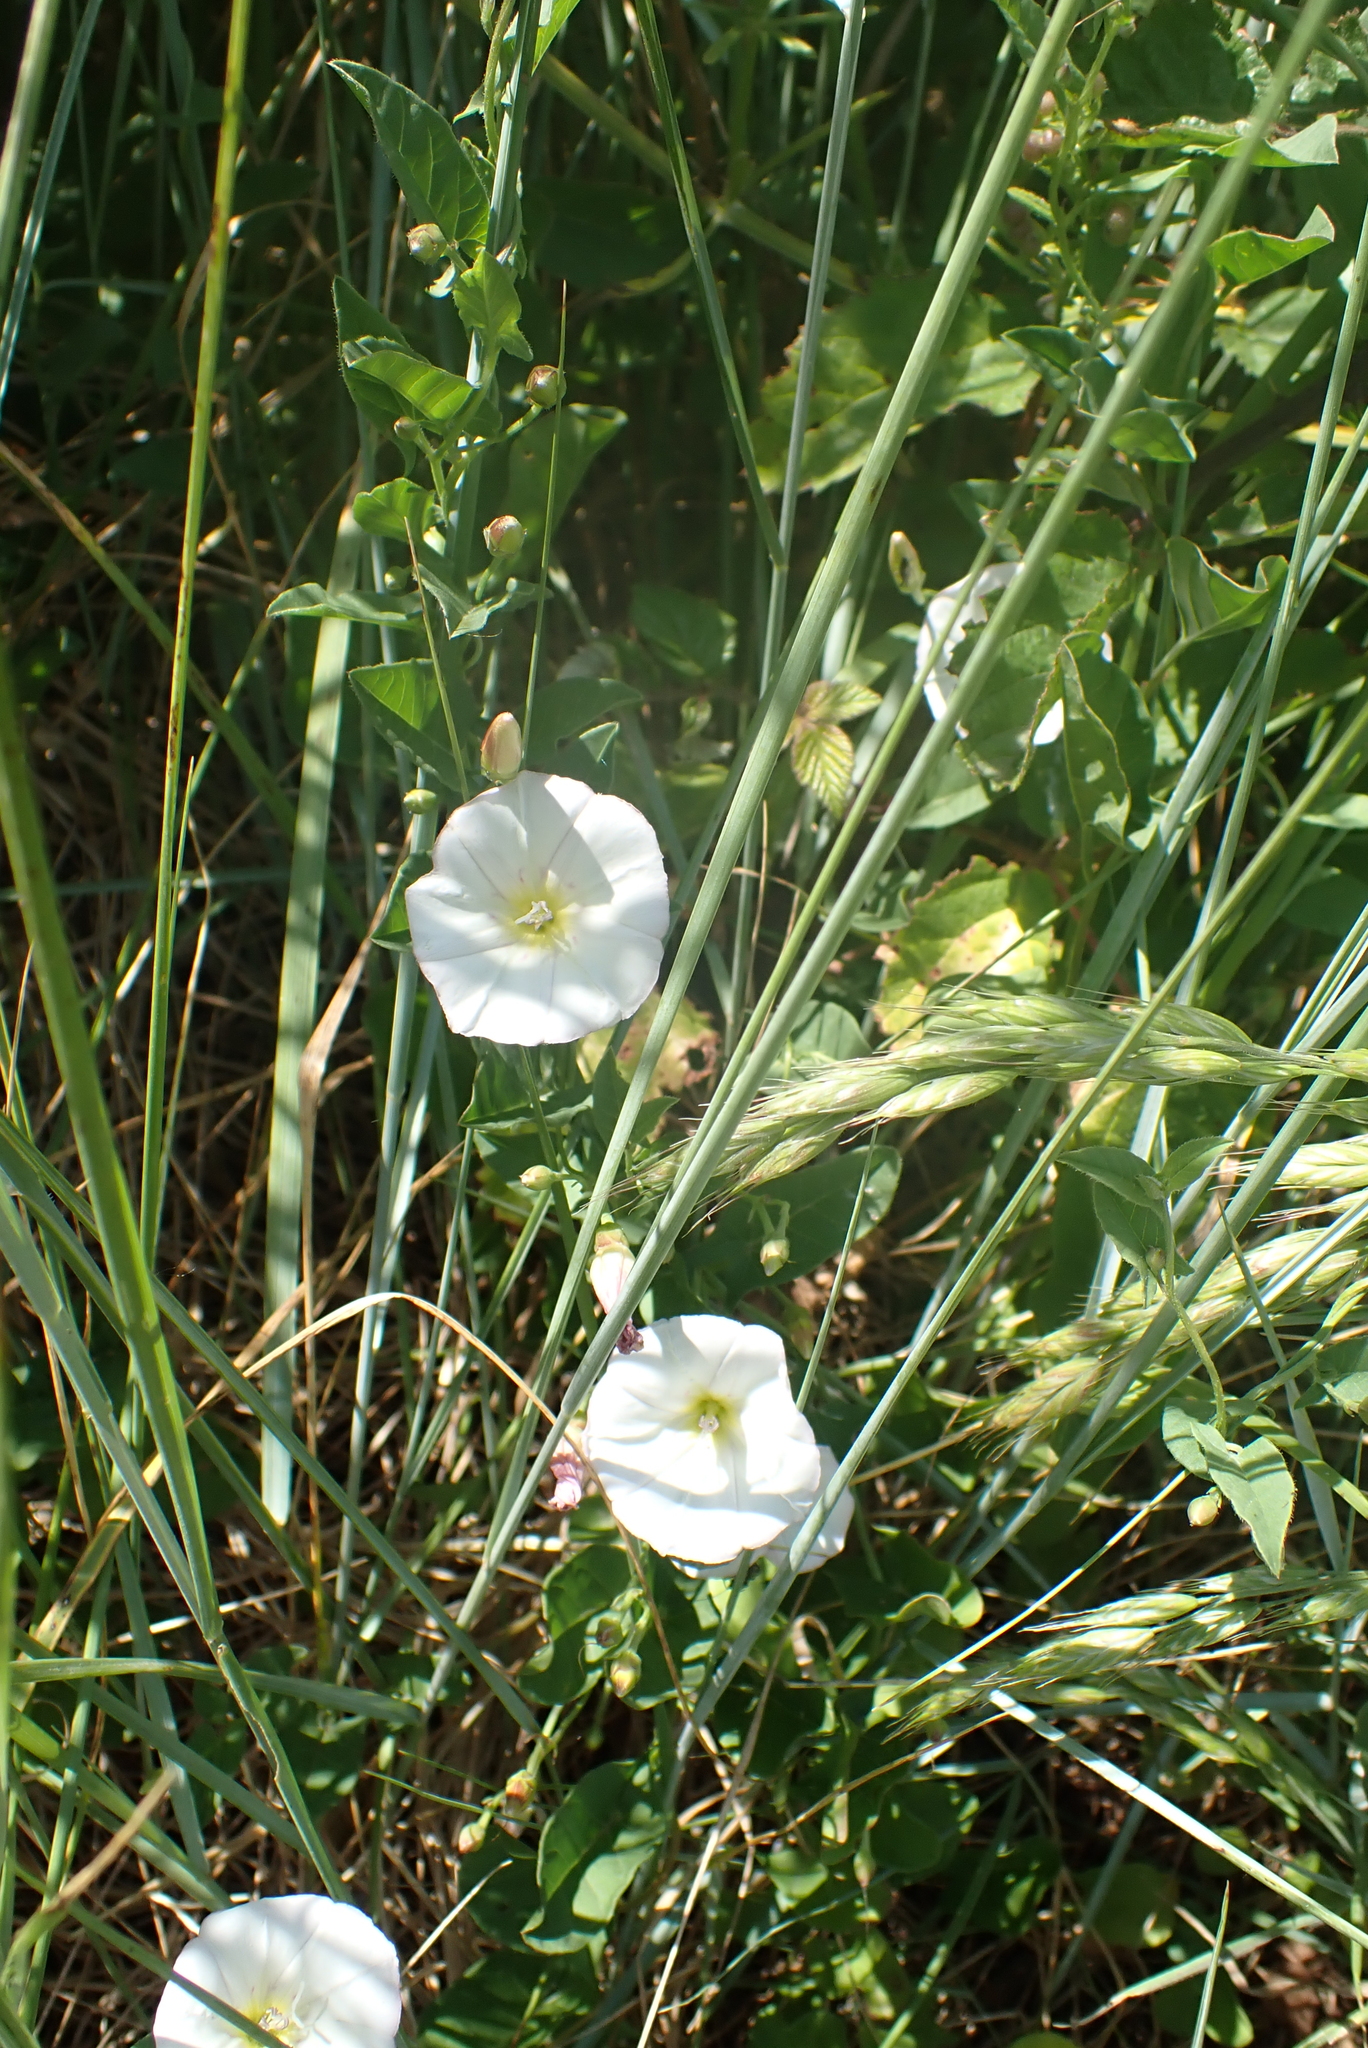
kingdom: Plantae
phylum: Tracheophyta
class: Magnoliopsida
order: Solanales
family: Convolvulaceae
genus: Convolvulus
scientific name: Convolvulus arvensis
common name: Field bindweed
